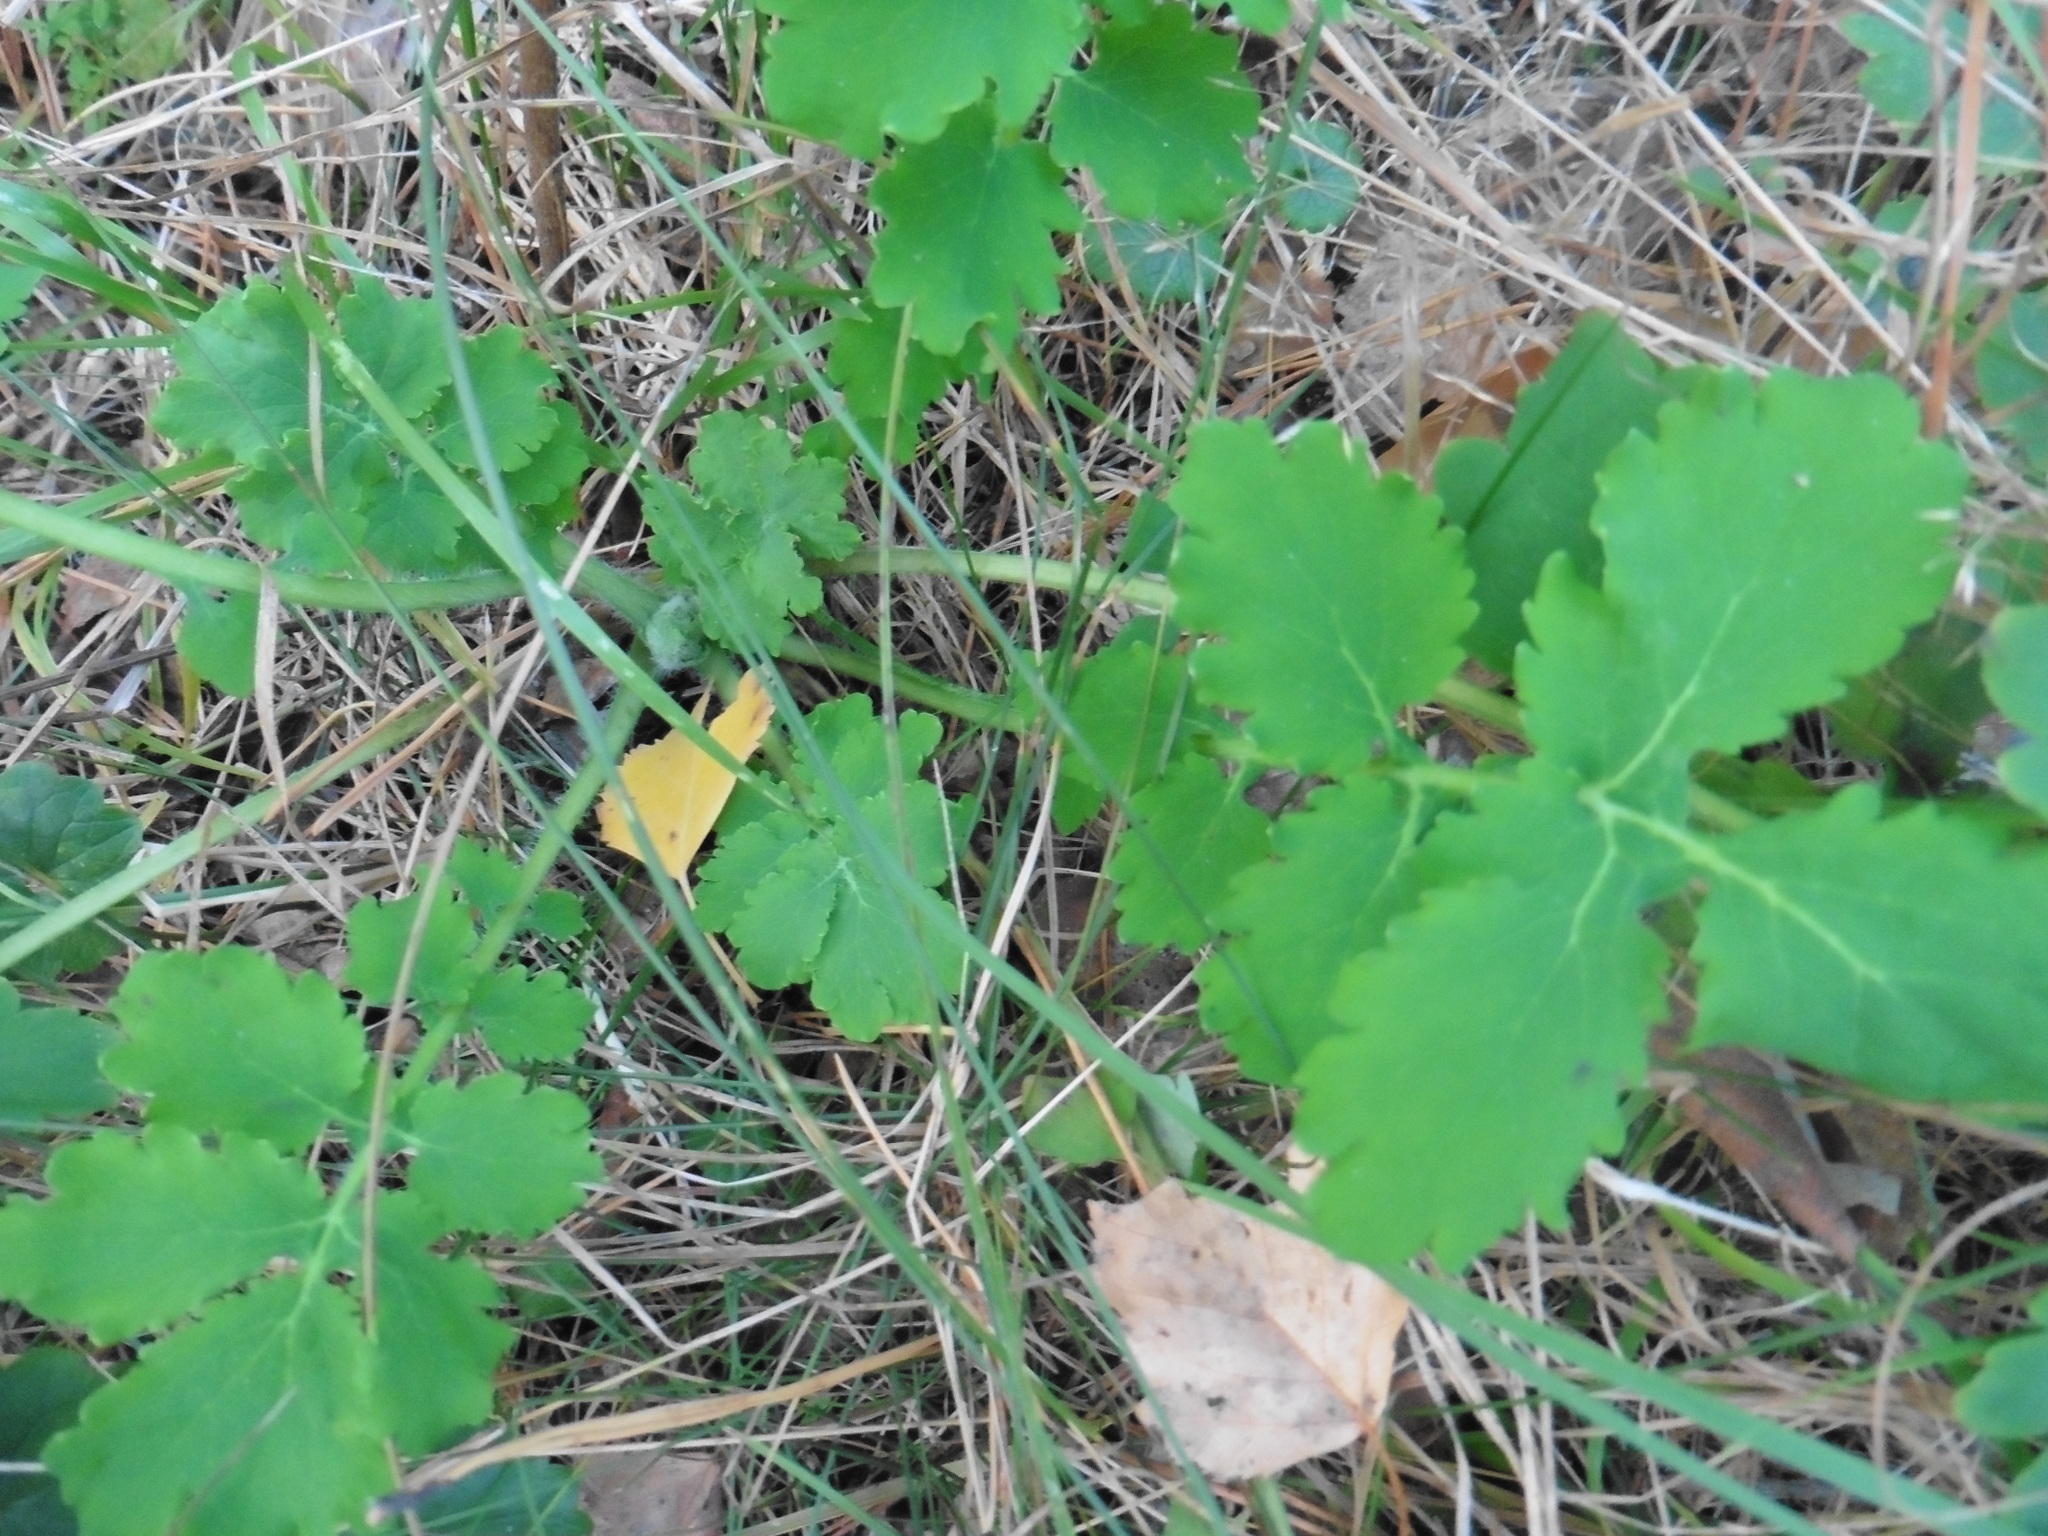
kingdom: Plantae
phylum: Tracheophyta
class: Magnoliopsida
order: Ranunculales
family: Papaveraceae
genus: Chelidonium
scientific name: Chelidonium majus
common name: Greater celandine
